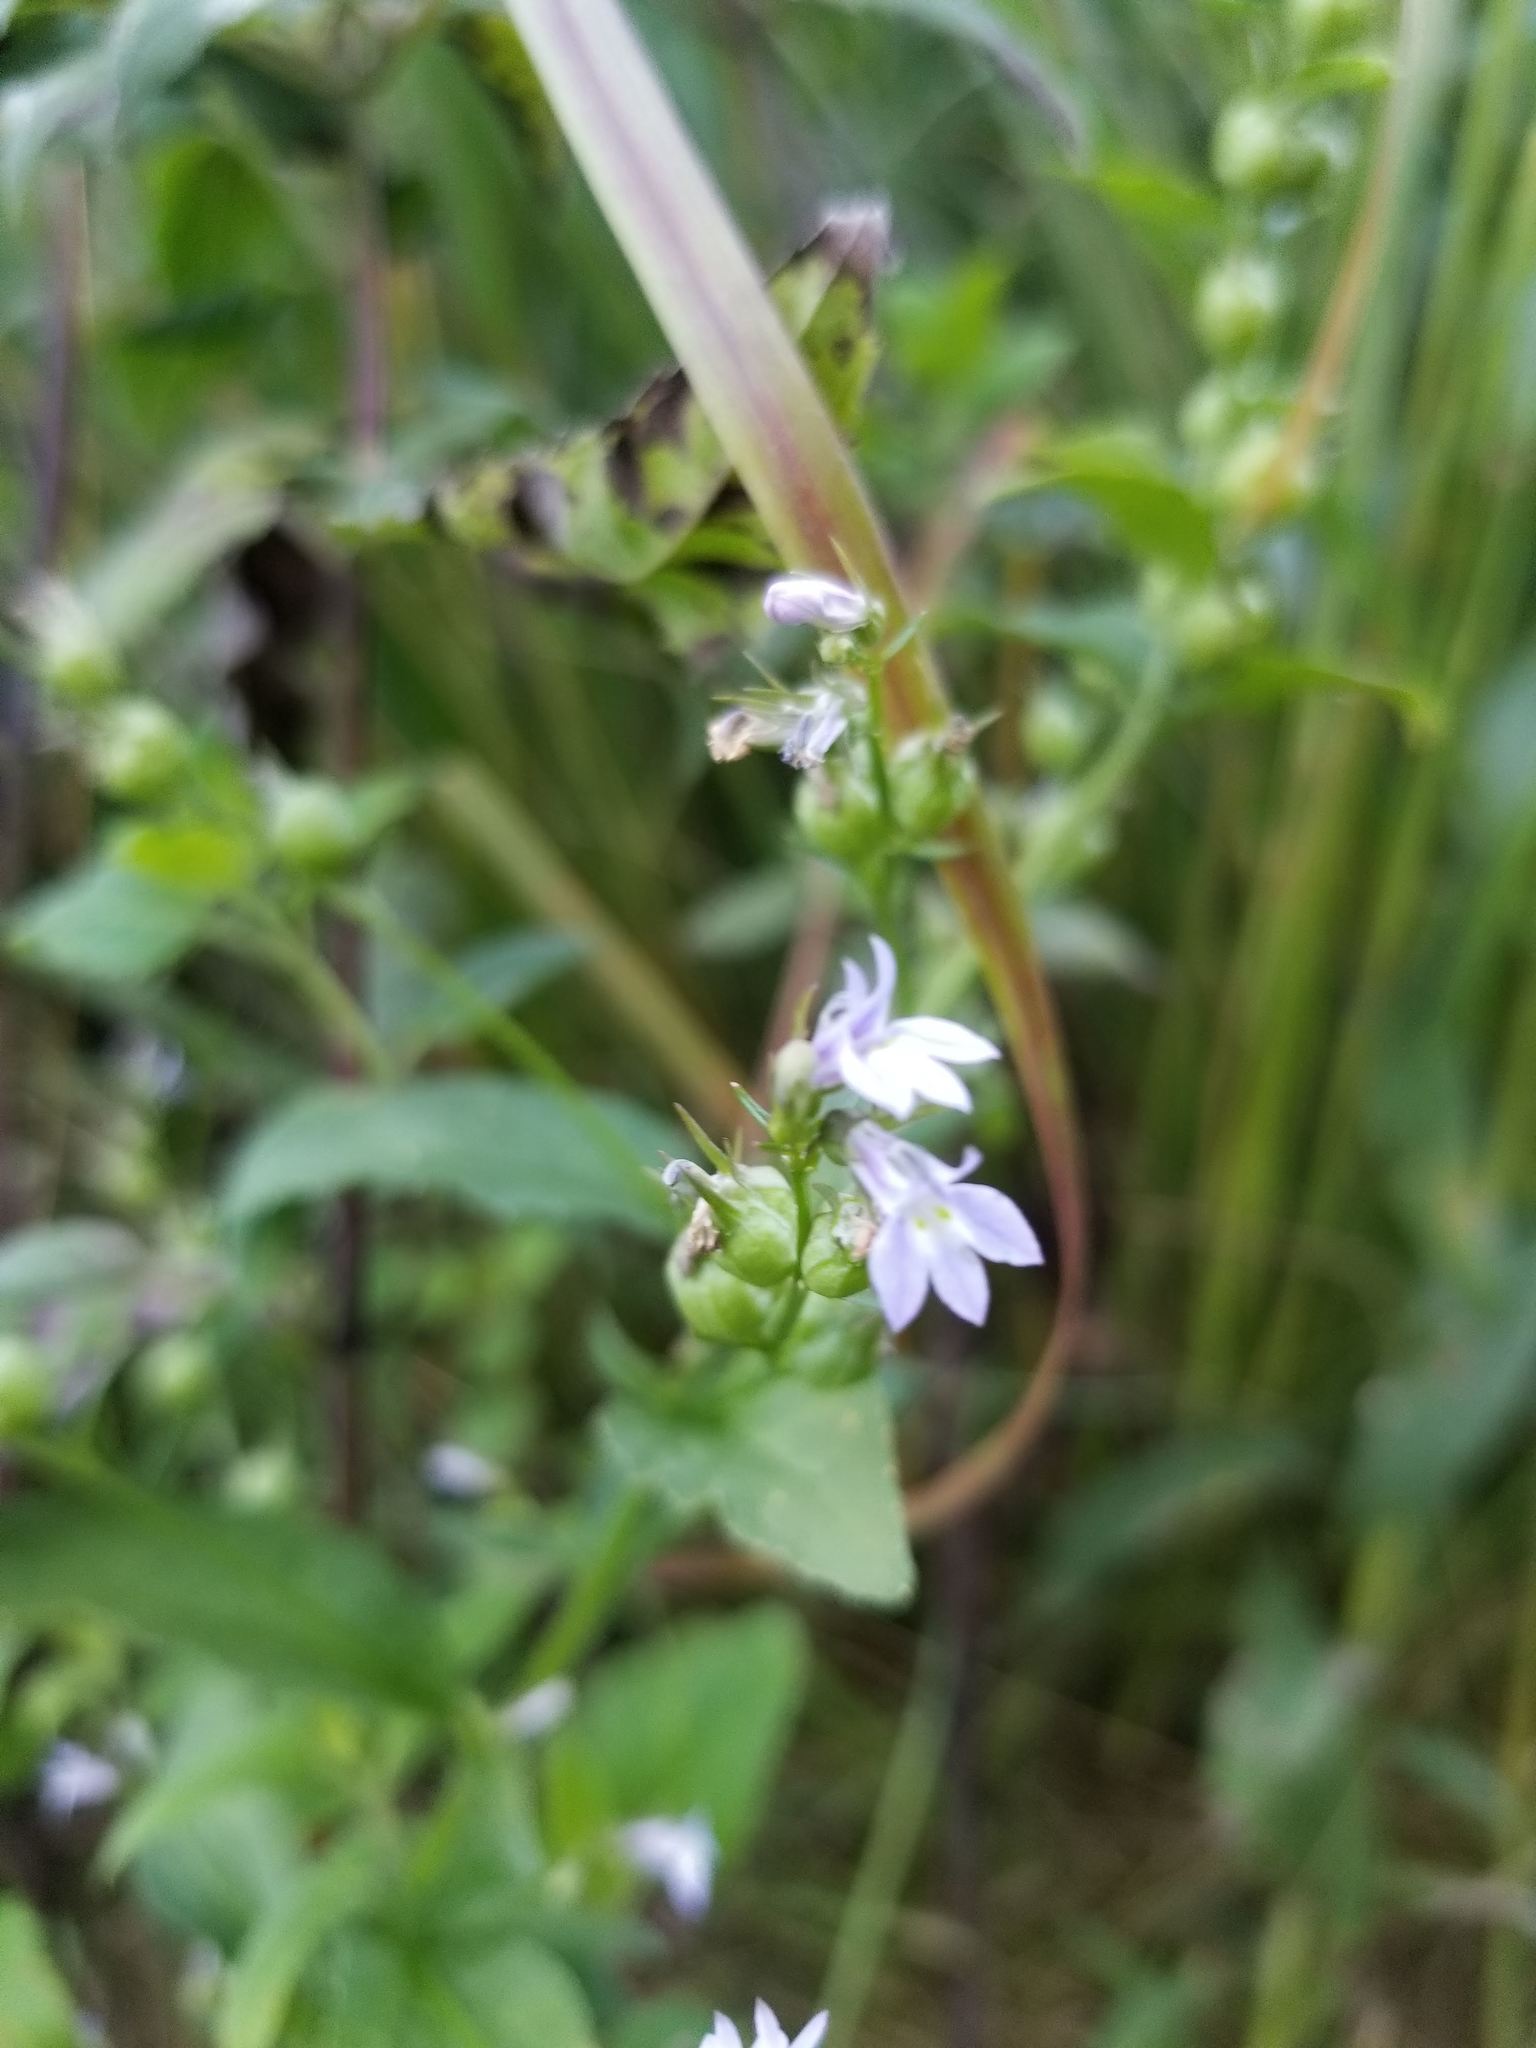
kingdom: Plantae
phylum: Tracheophyta
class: Magnoliopsida
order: Asterales
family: Campanulaceae
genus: Lobelia
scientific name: Lobelia inflata
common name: Indian tobacco
